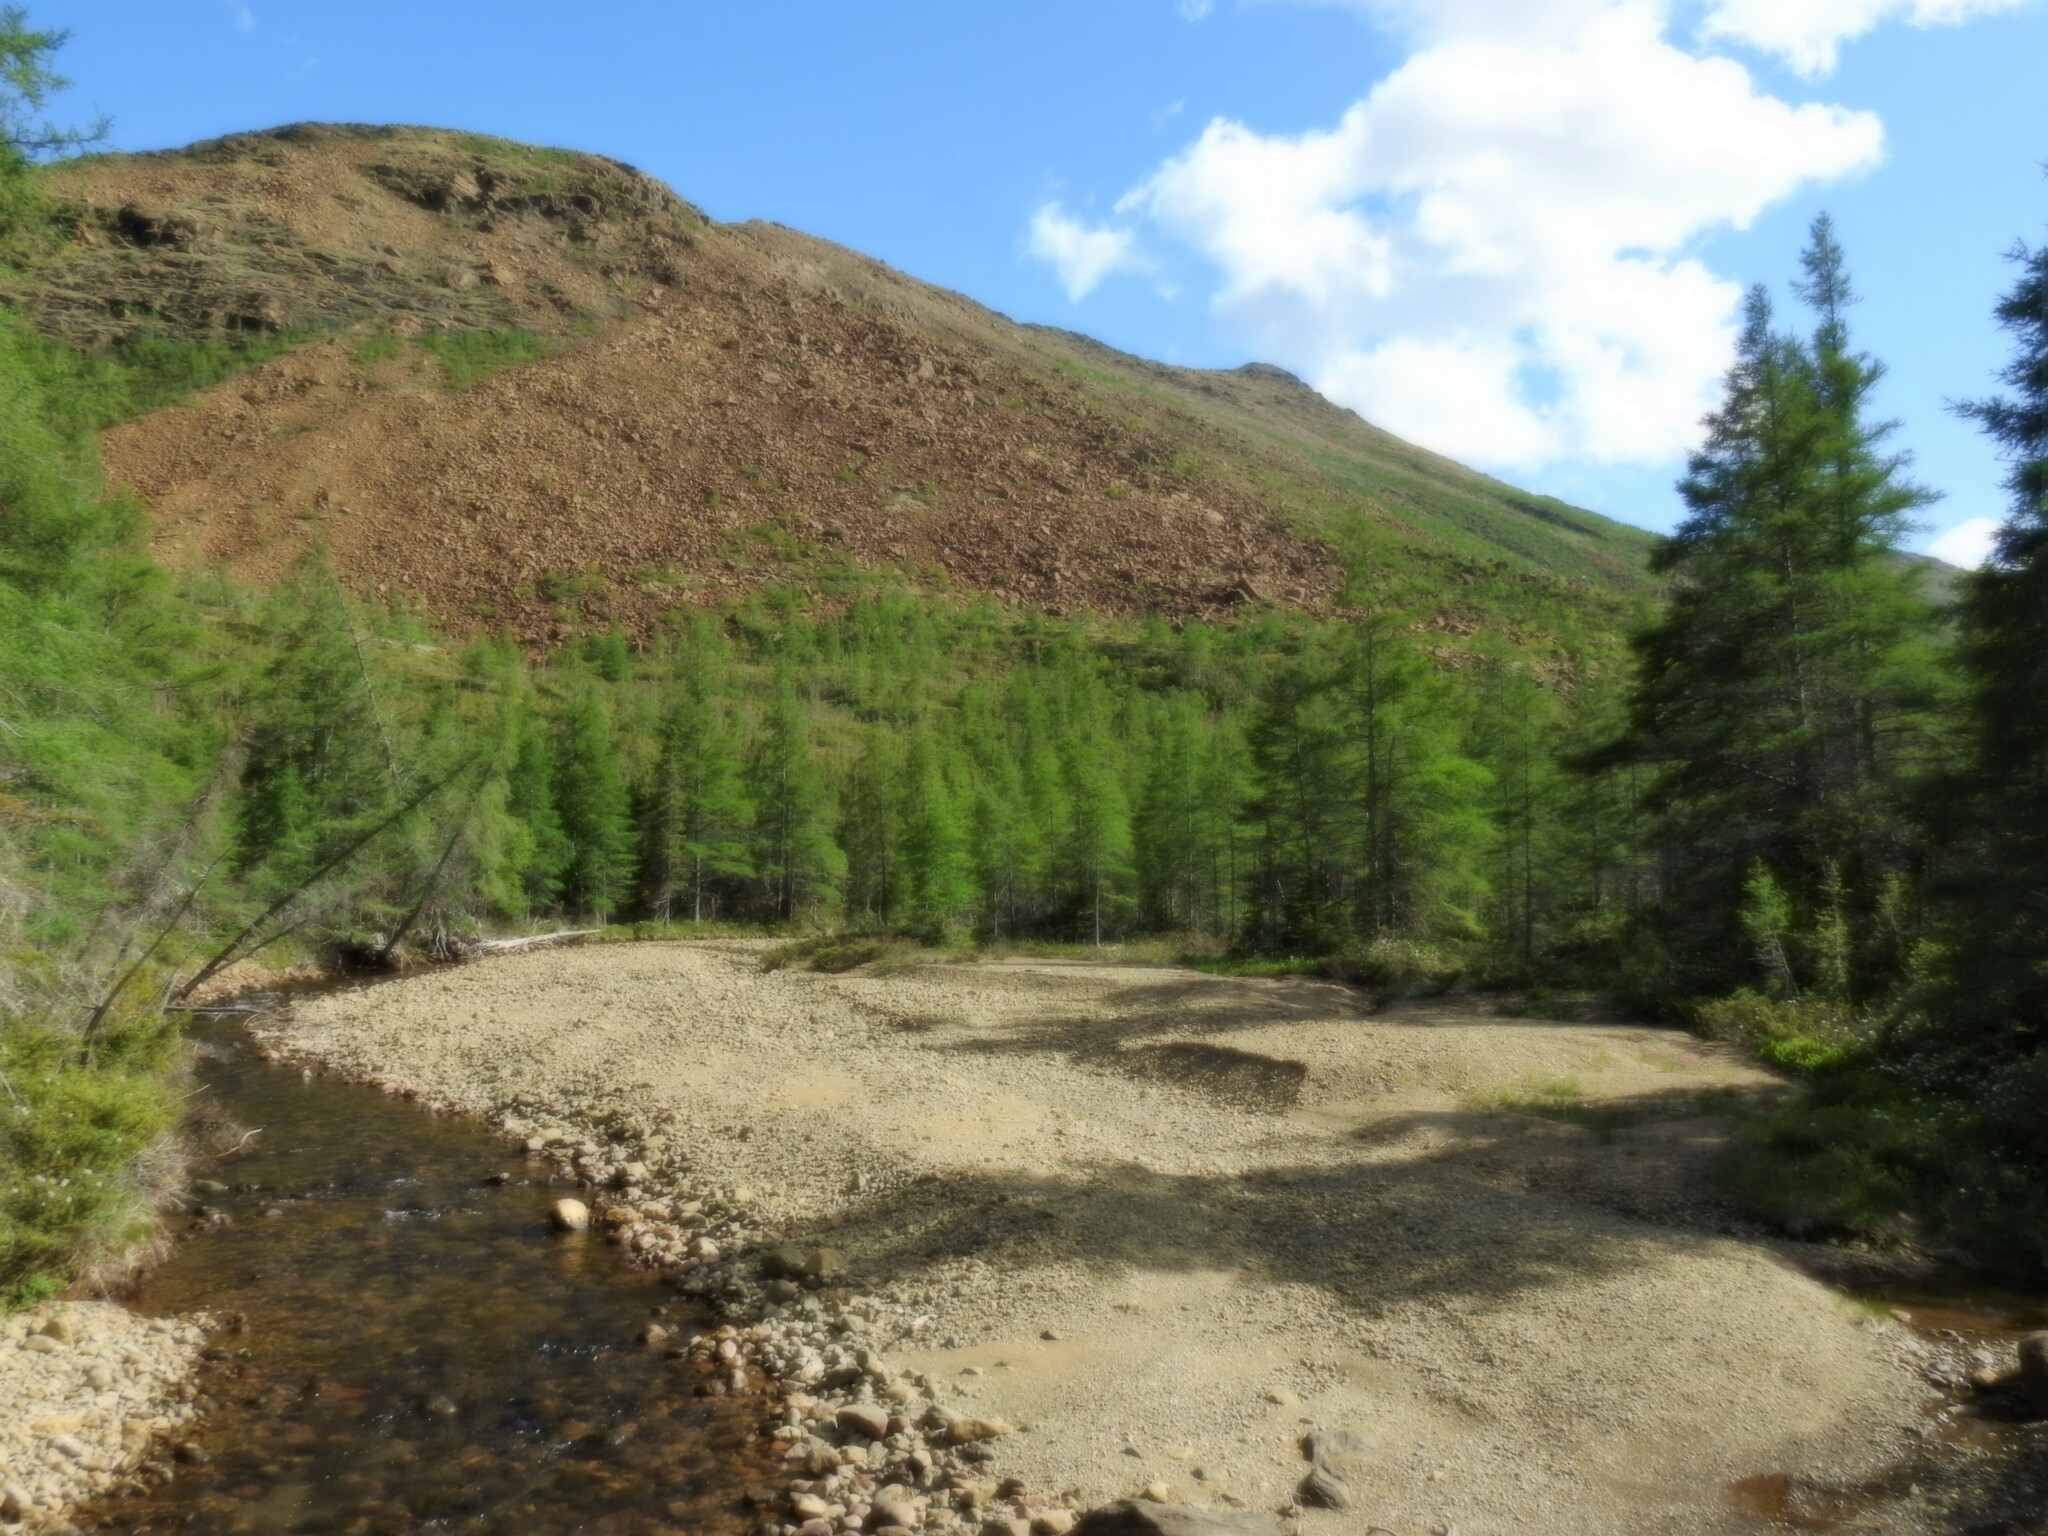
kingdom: Plantae
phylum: Tracheophyta
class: Pinopsida
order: Pinales
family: Pinaceae
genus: Larix
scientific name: Larix laricina
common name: American larch
